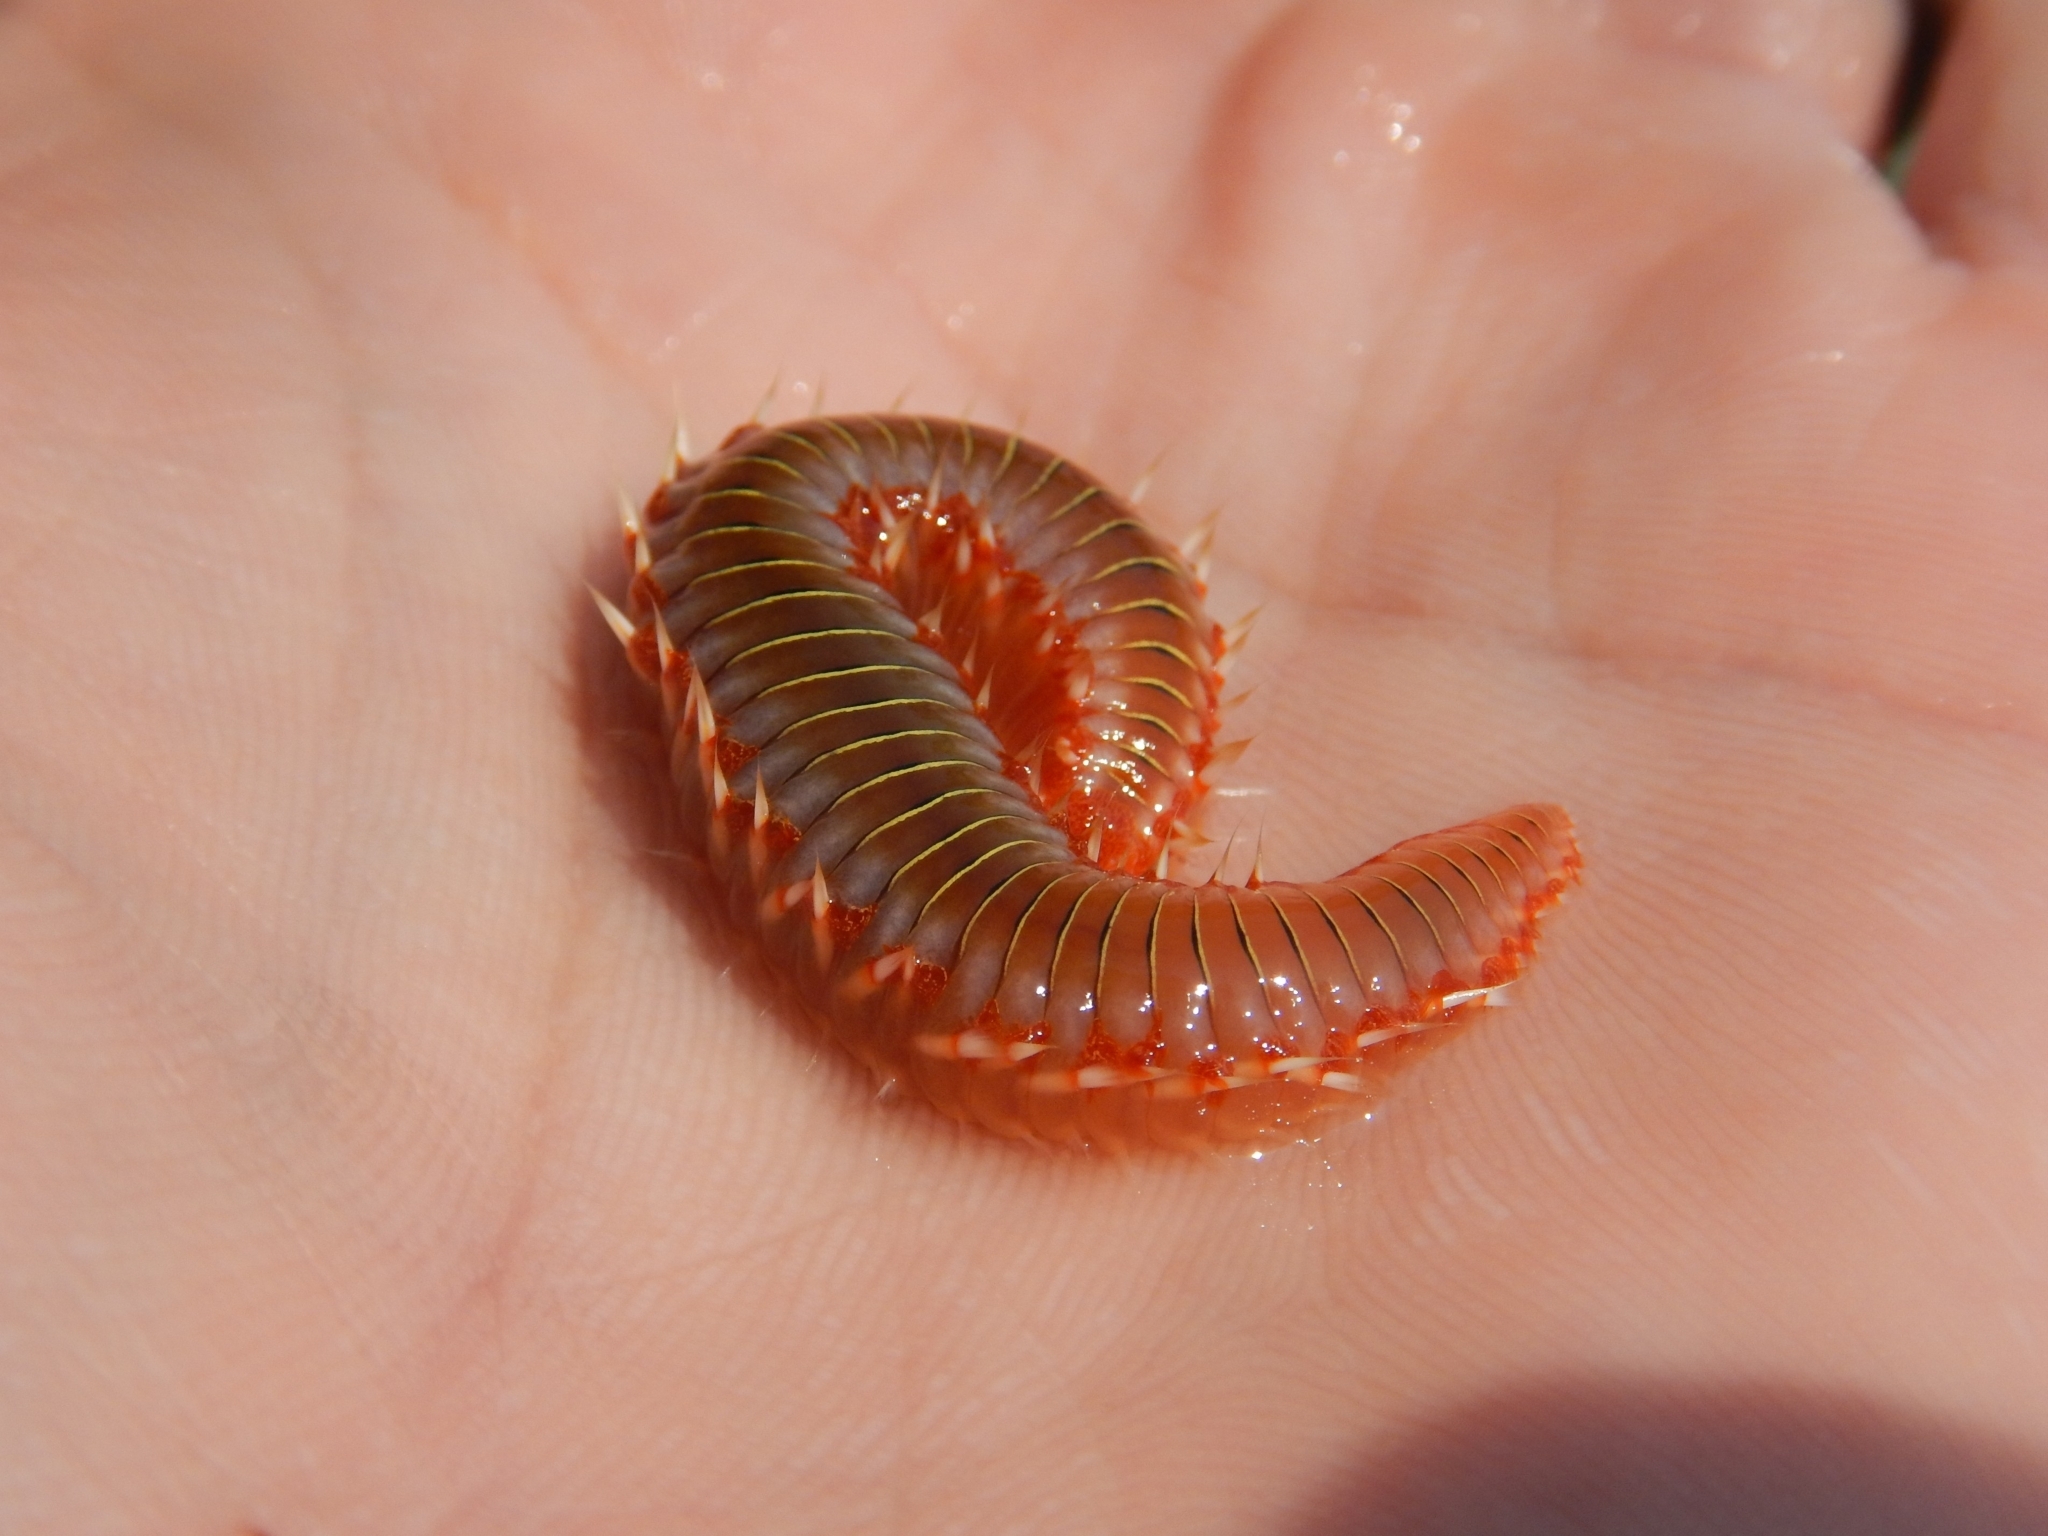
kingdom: Animalia
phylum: Annelida
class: Polychaeta
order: Amphinomida
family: Amphinomidae
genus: Hermodice
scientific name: Hermodice carunculata
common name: Bearded fireworm
